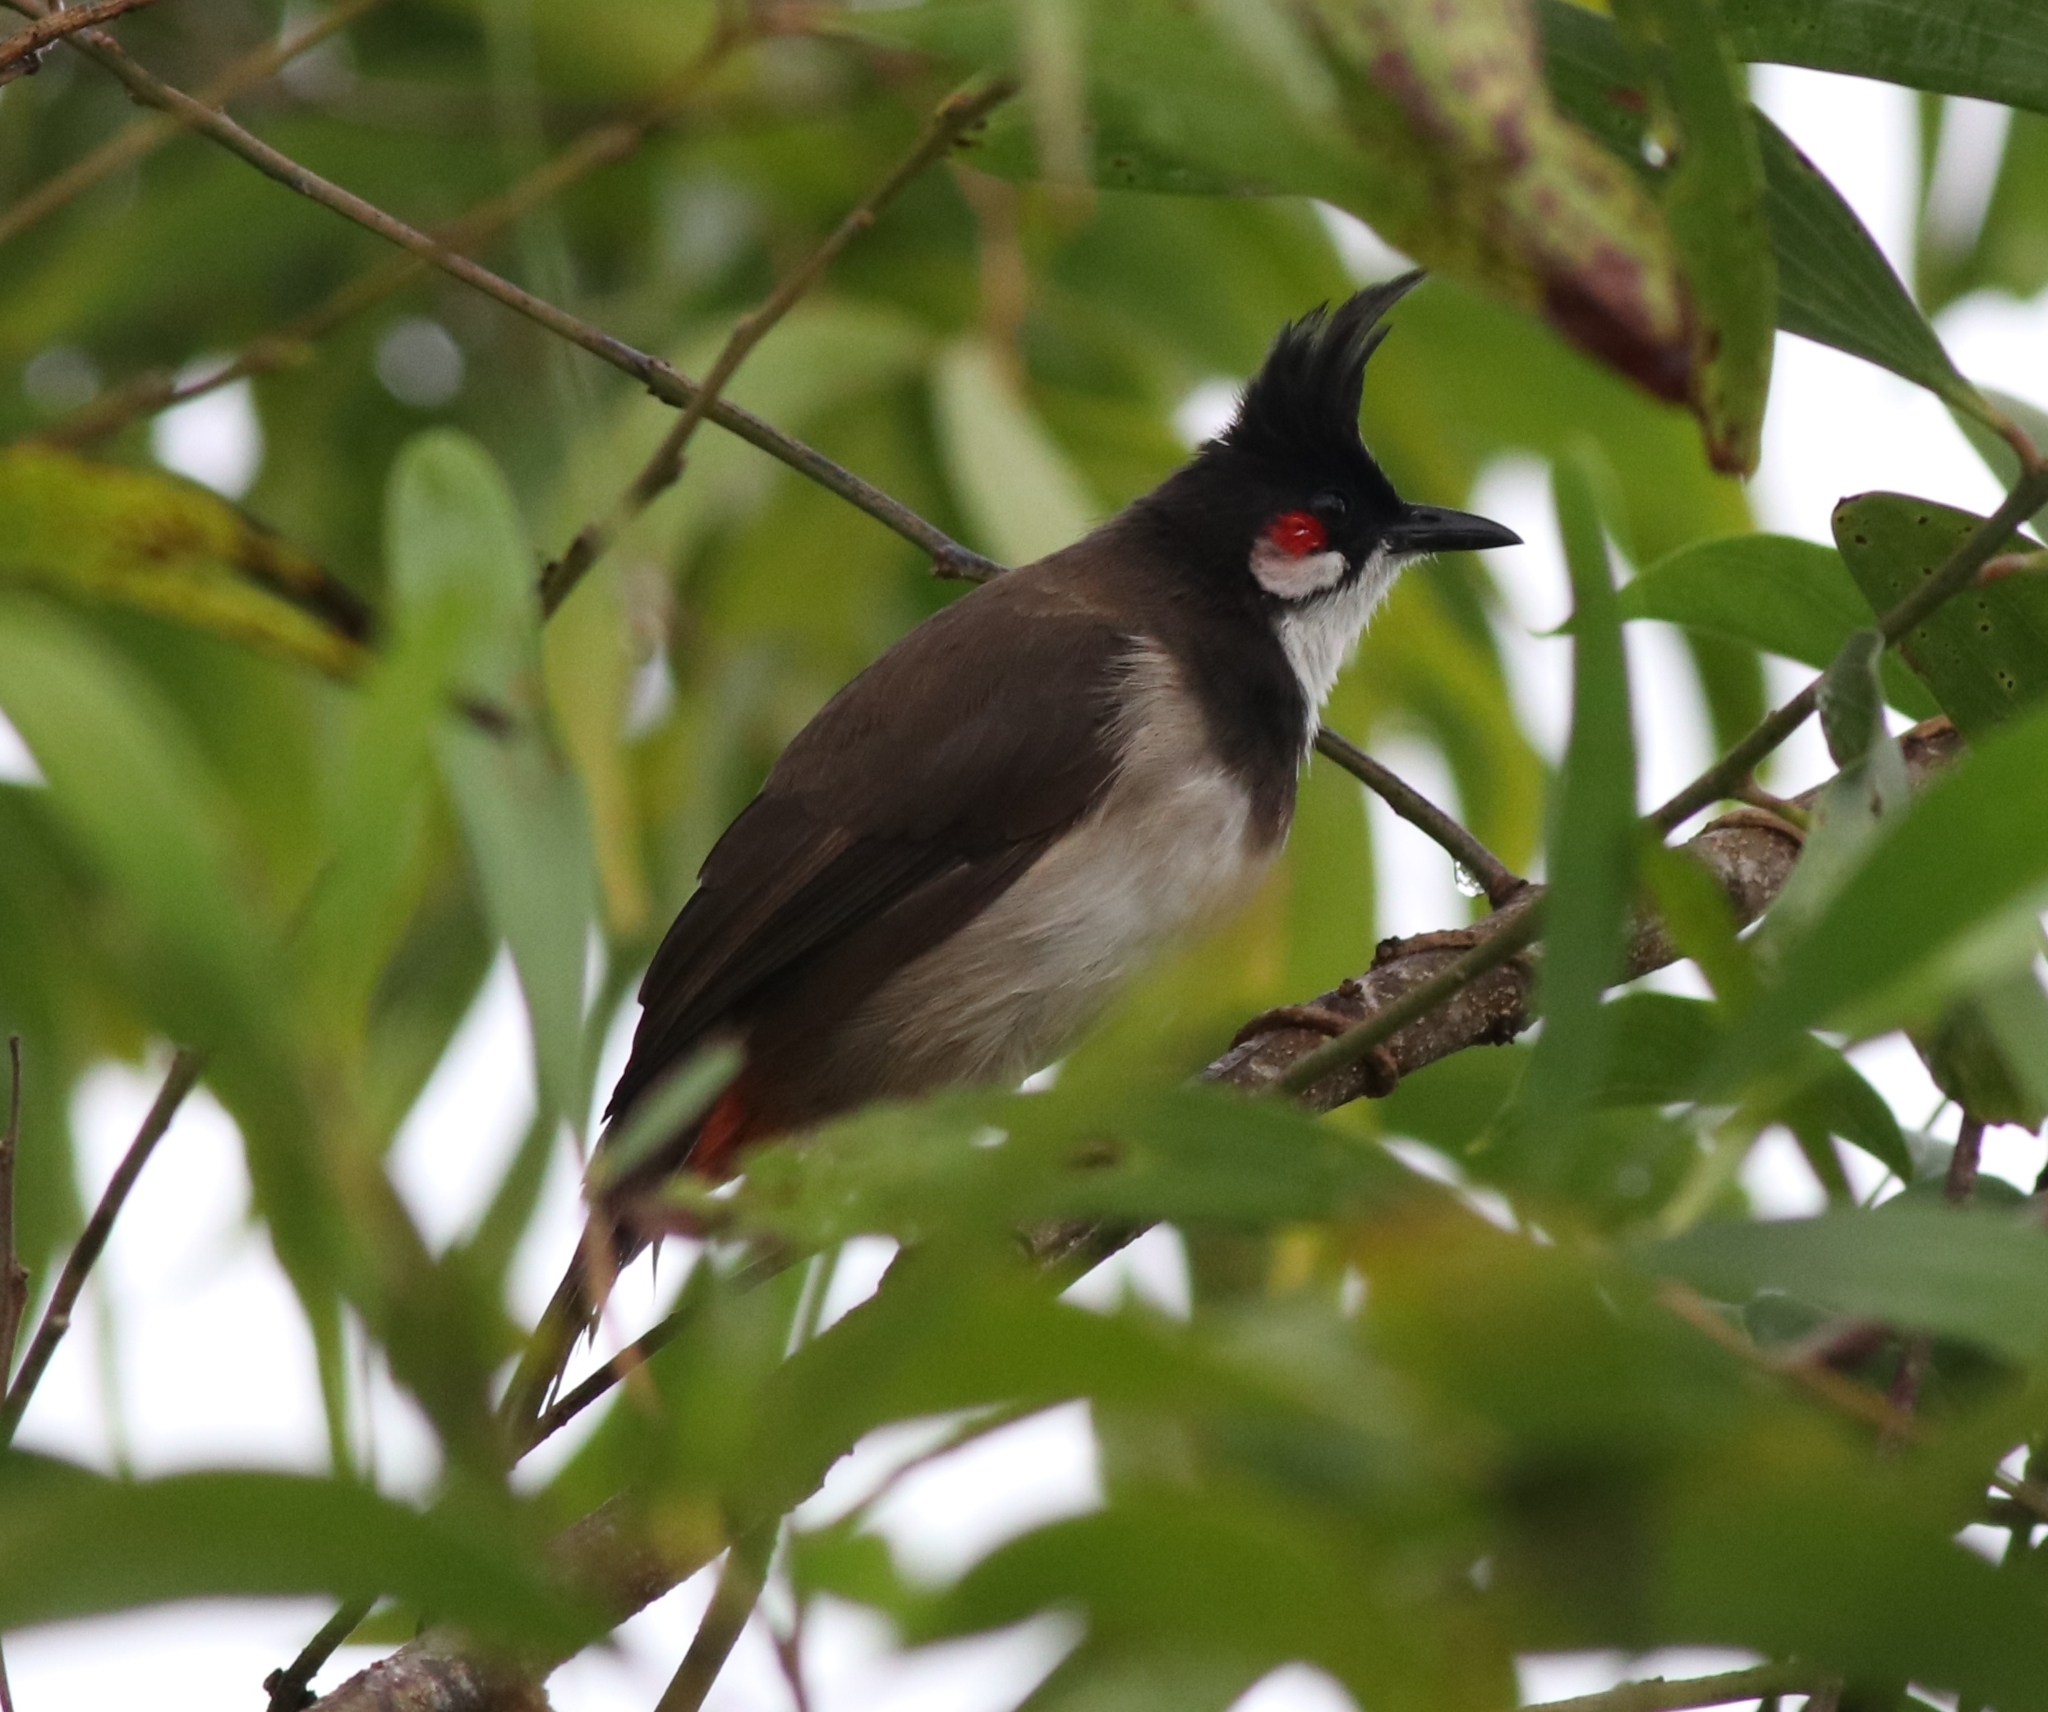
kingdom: Animalia
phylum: Chordata
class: Aves
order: Passeriformes
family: Pycnonotidae
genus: Pycnonotus
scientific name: Pycnonotus jocosus
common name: Red-whiskered bulbul
